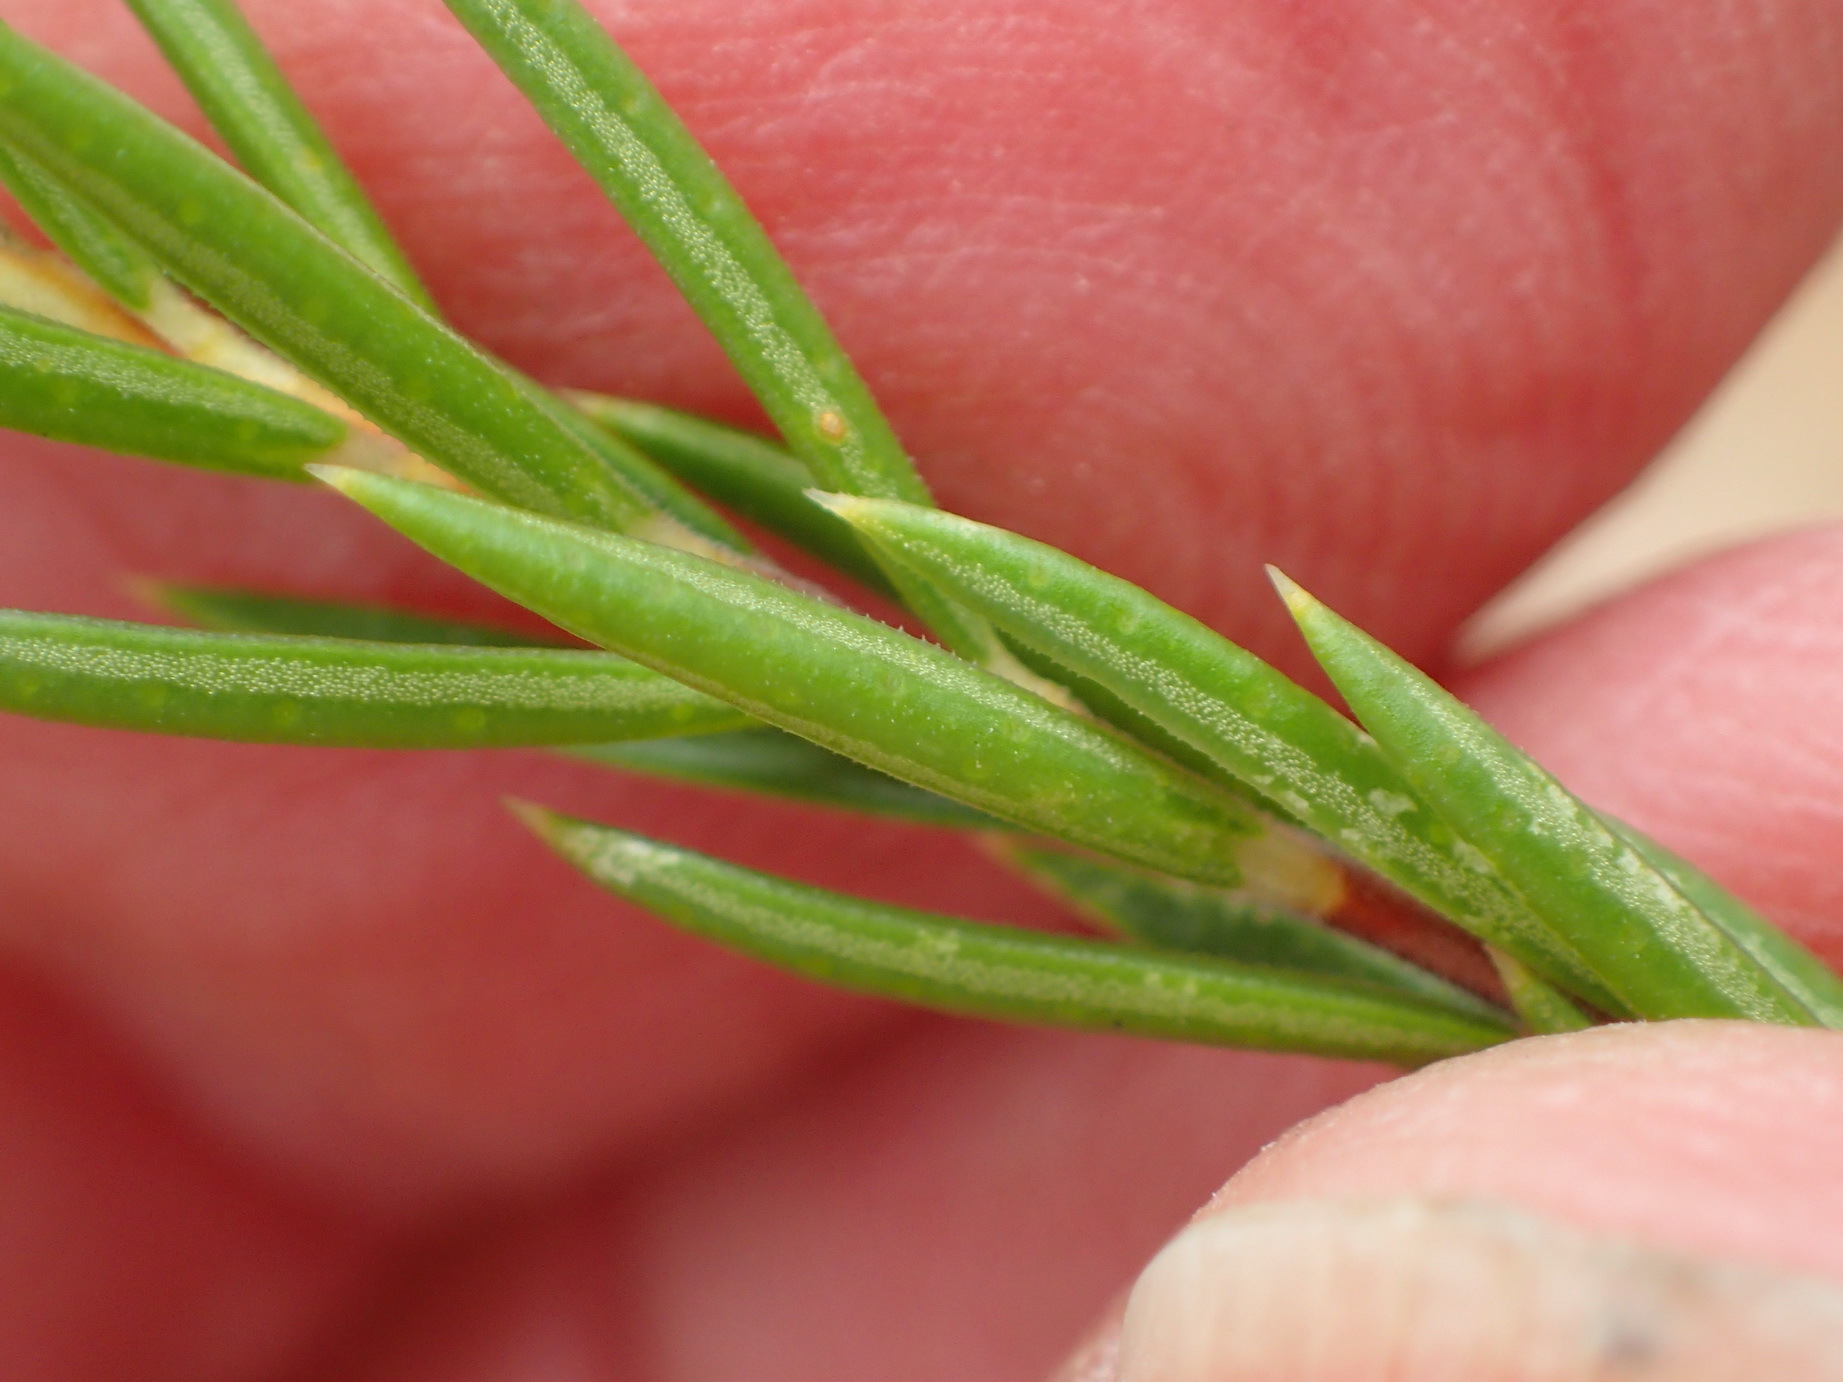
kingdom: Plantae
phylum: Tracheophyta
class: Magnoliopsida
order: Sapindales
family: Rutaceae
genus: Diosma
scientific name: Diosma rourkei
